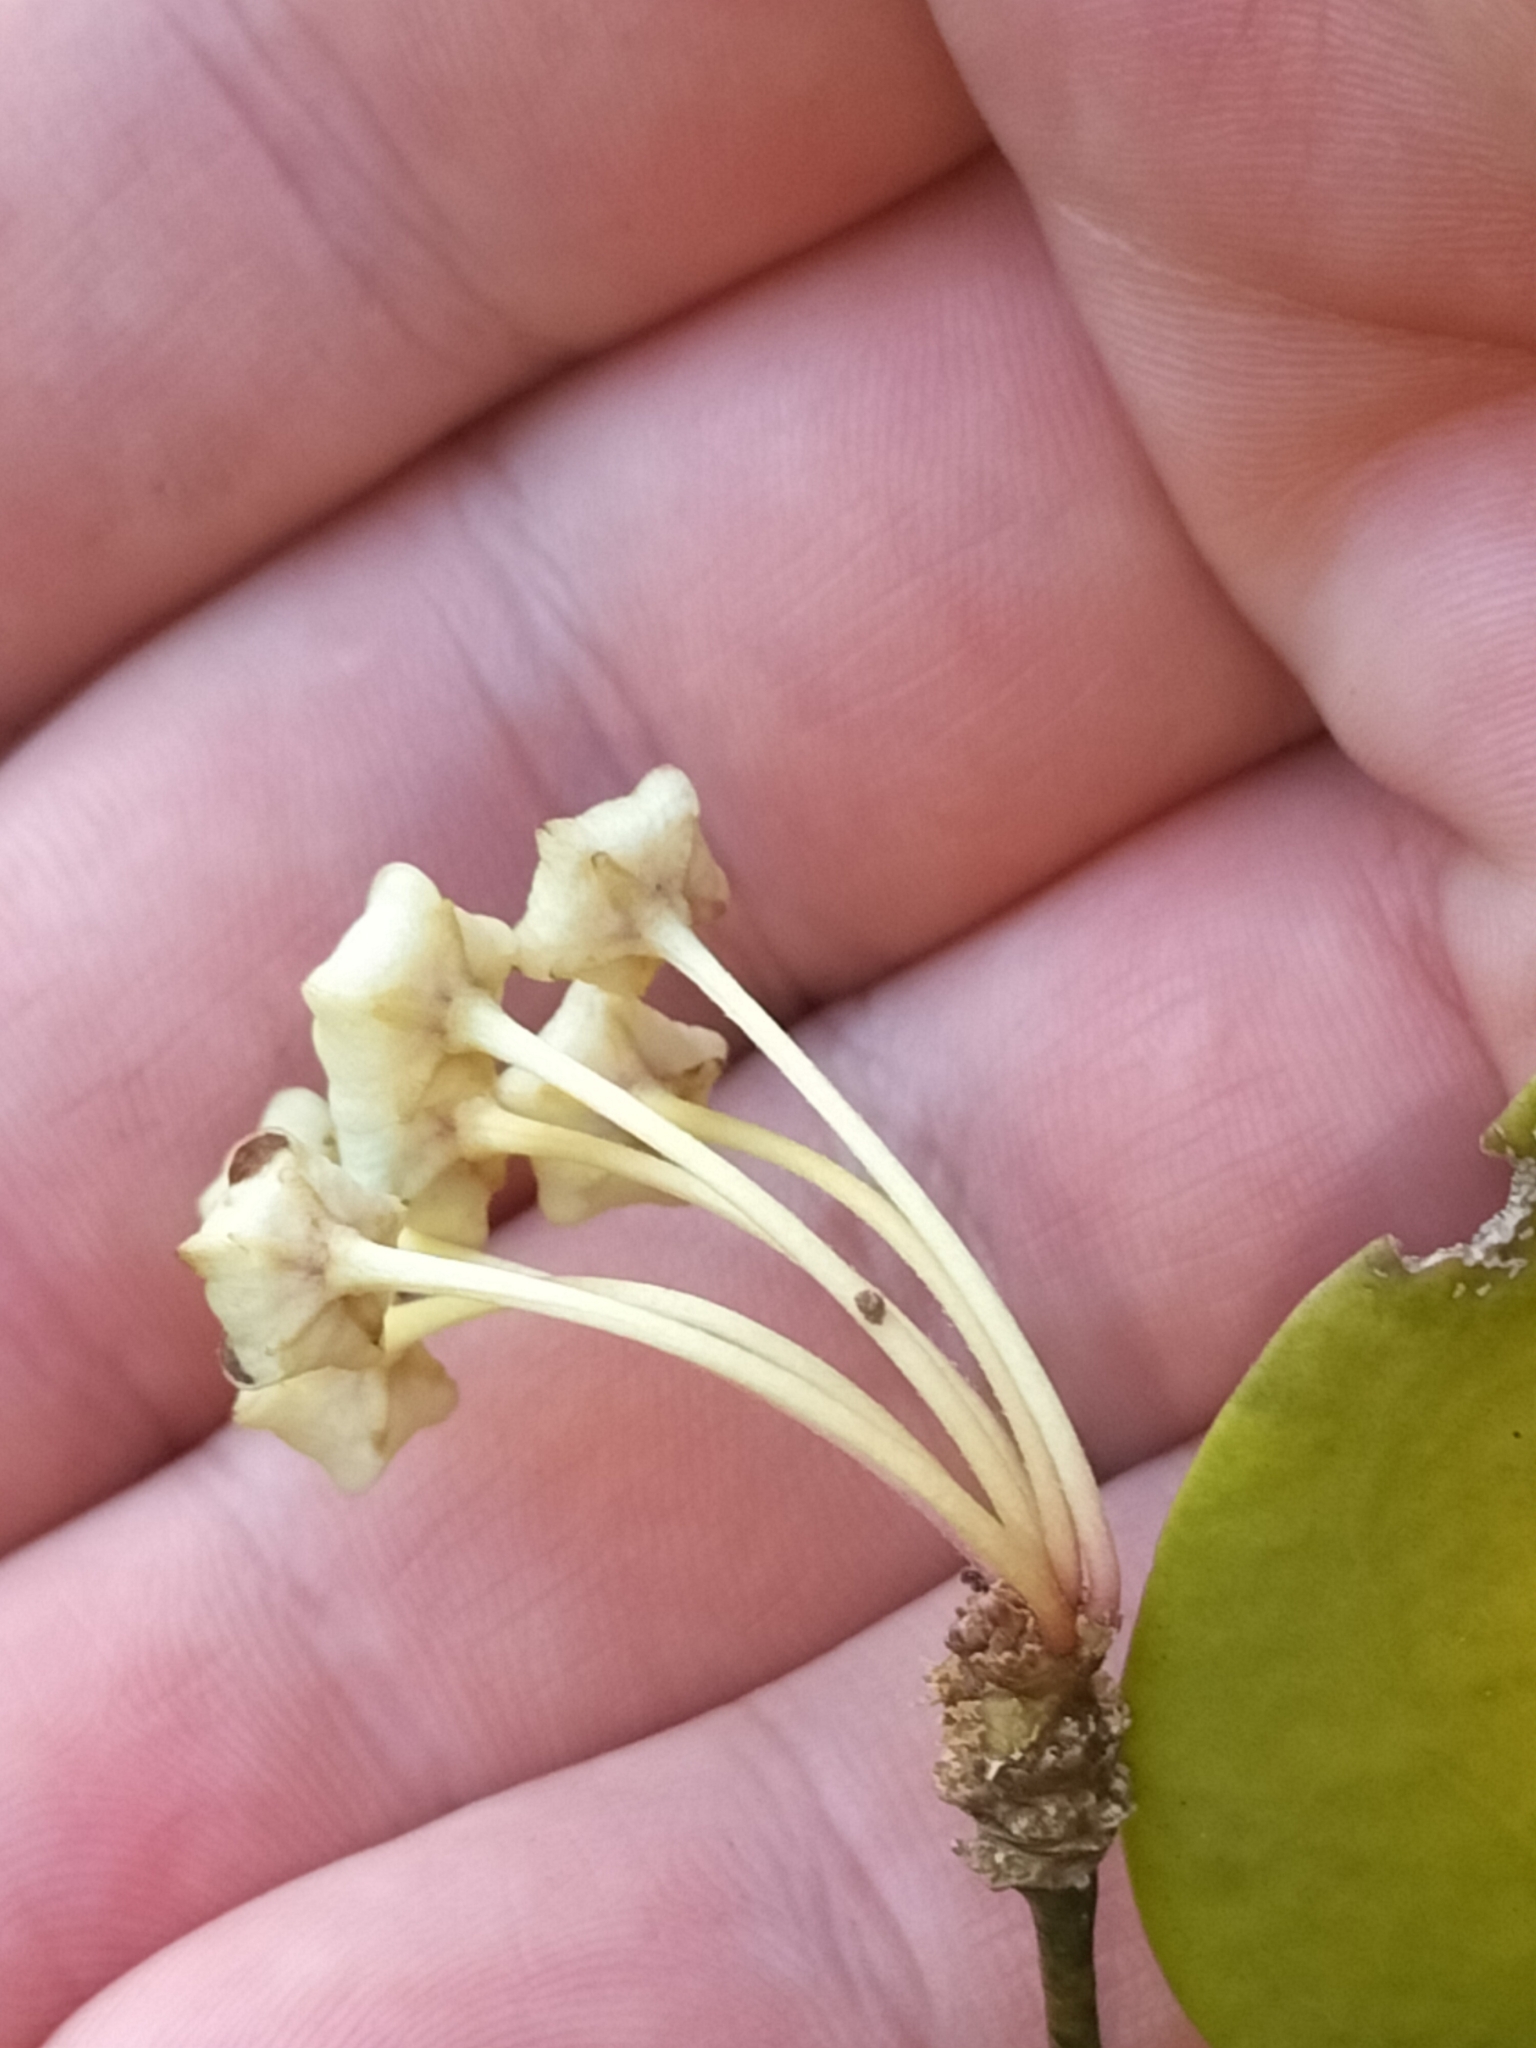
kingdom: Plantae
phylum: Tracheophyta
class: Magnoliopsida
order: Gentianales
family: Apocynaceae
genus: Hoya
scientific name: Hoya australis
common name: Wax flower
